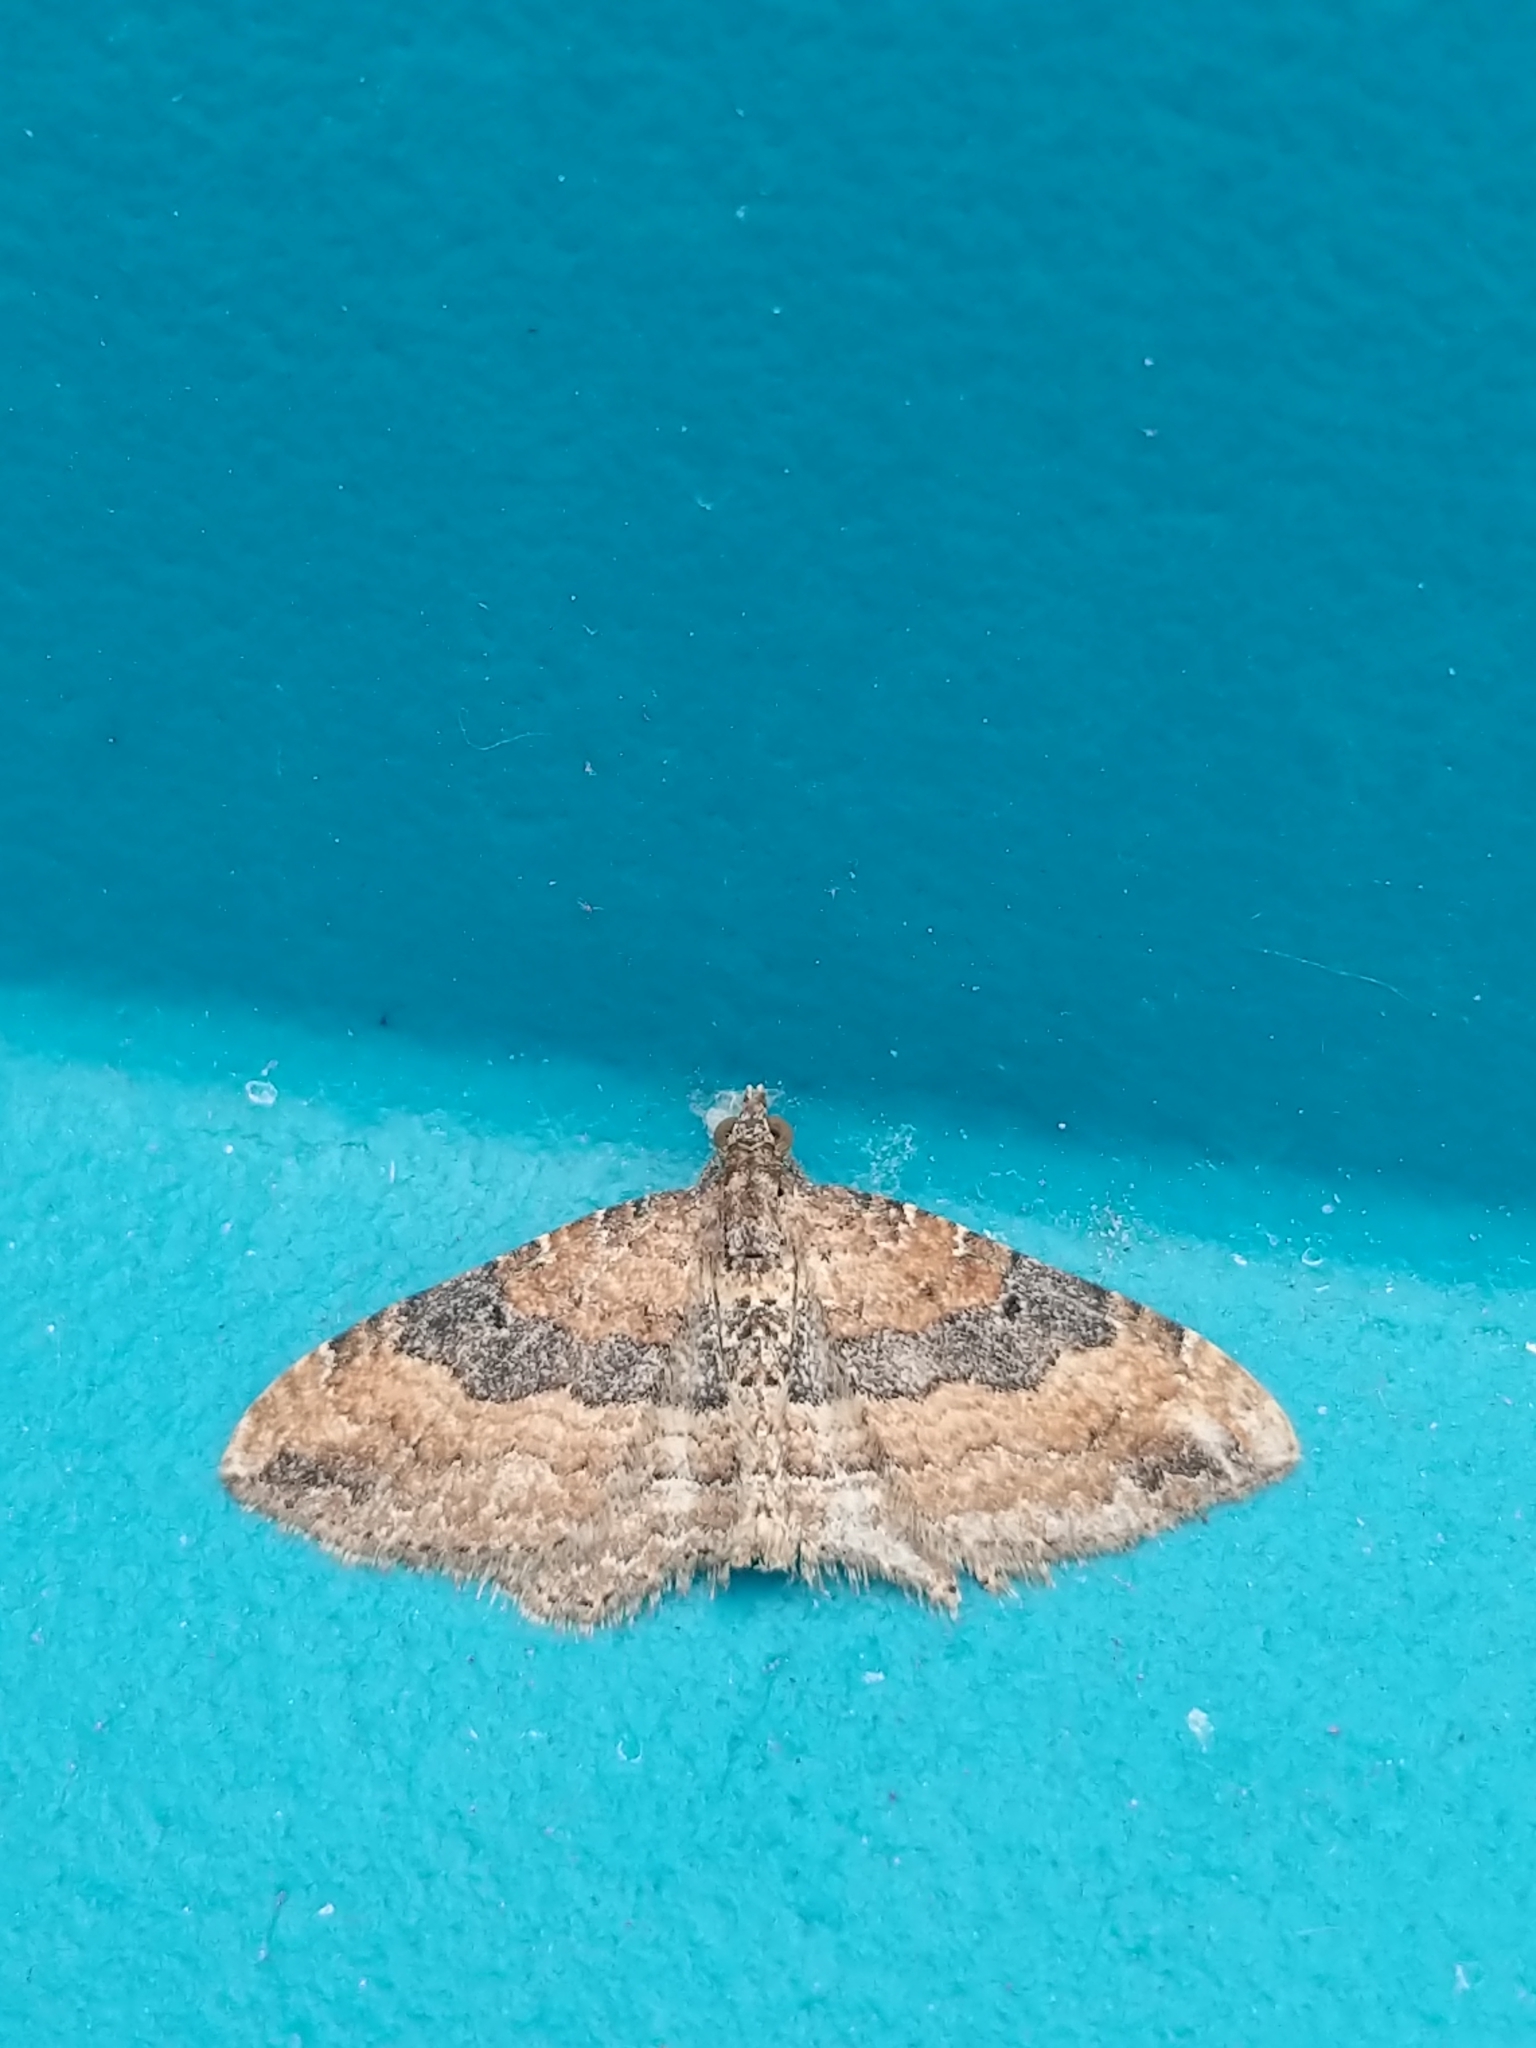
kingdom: Animalia
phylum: Arthropoda
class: Insecta
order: Lepidoptera
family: Geometridae
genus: Orthonama
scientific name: Orthonama obstipata
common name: The gem
